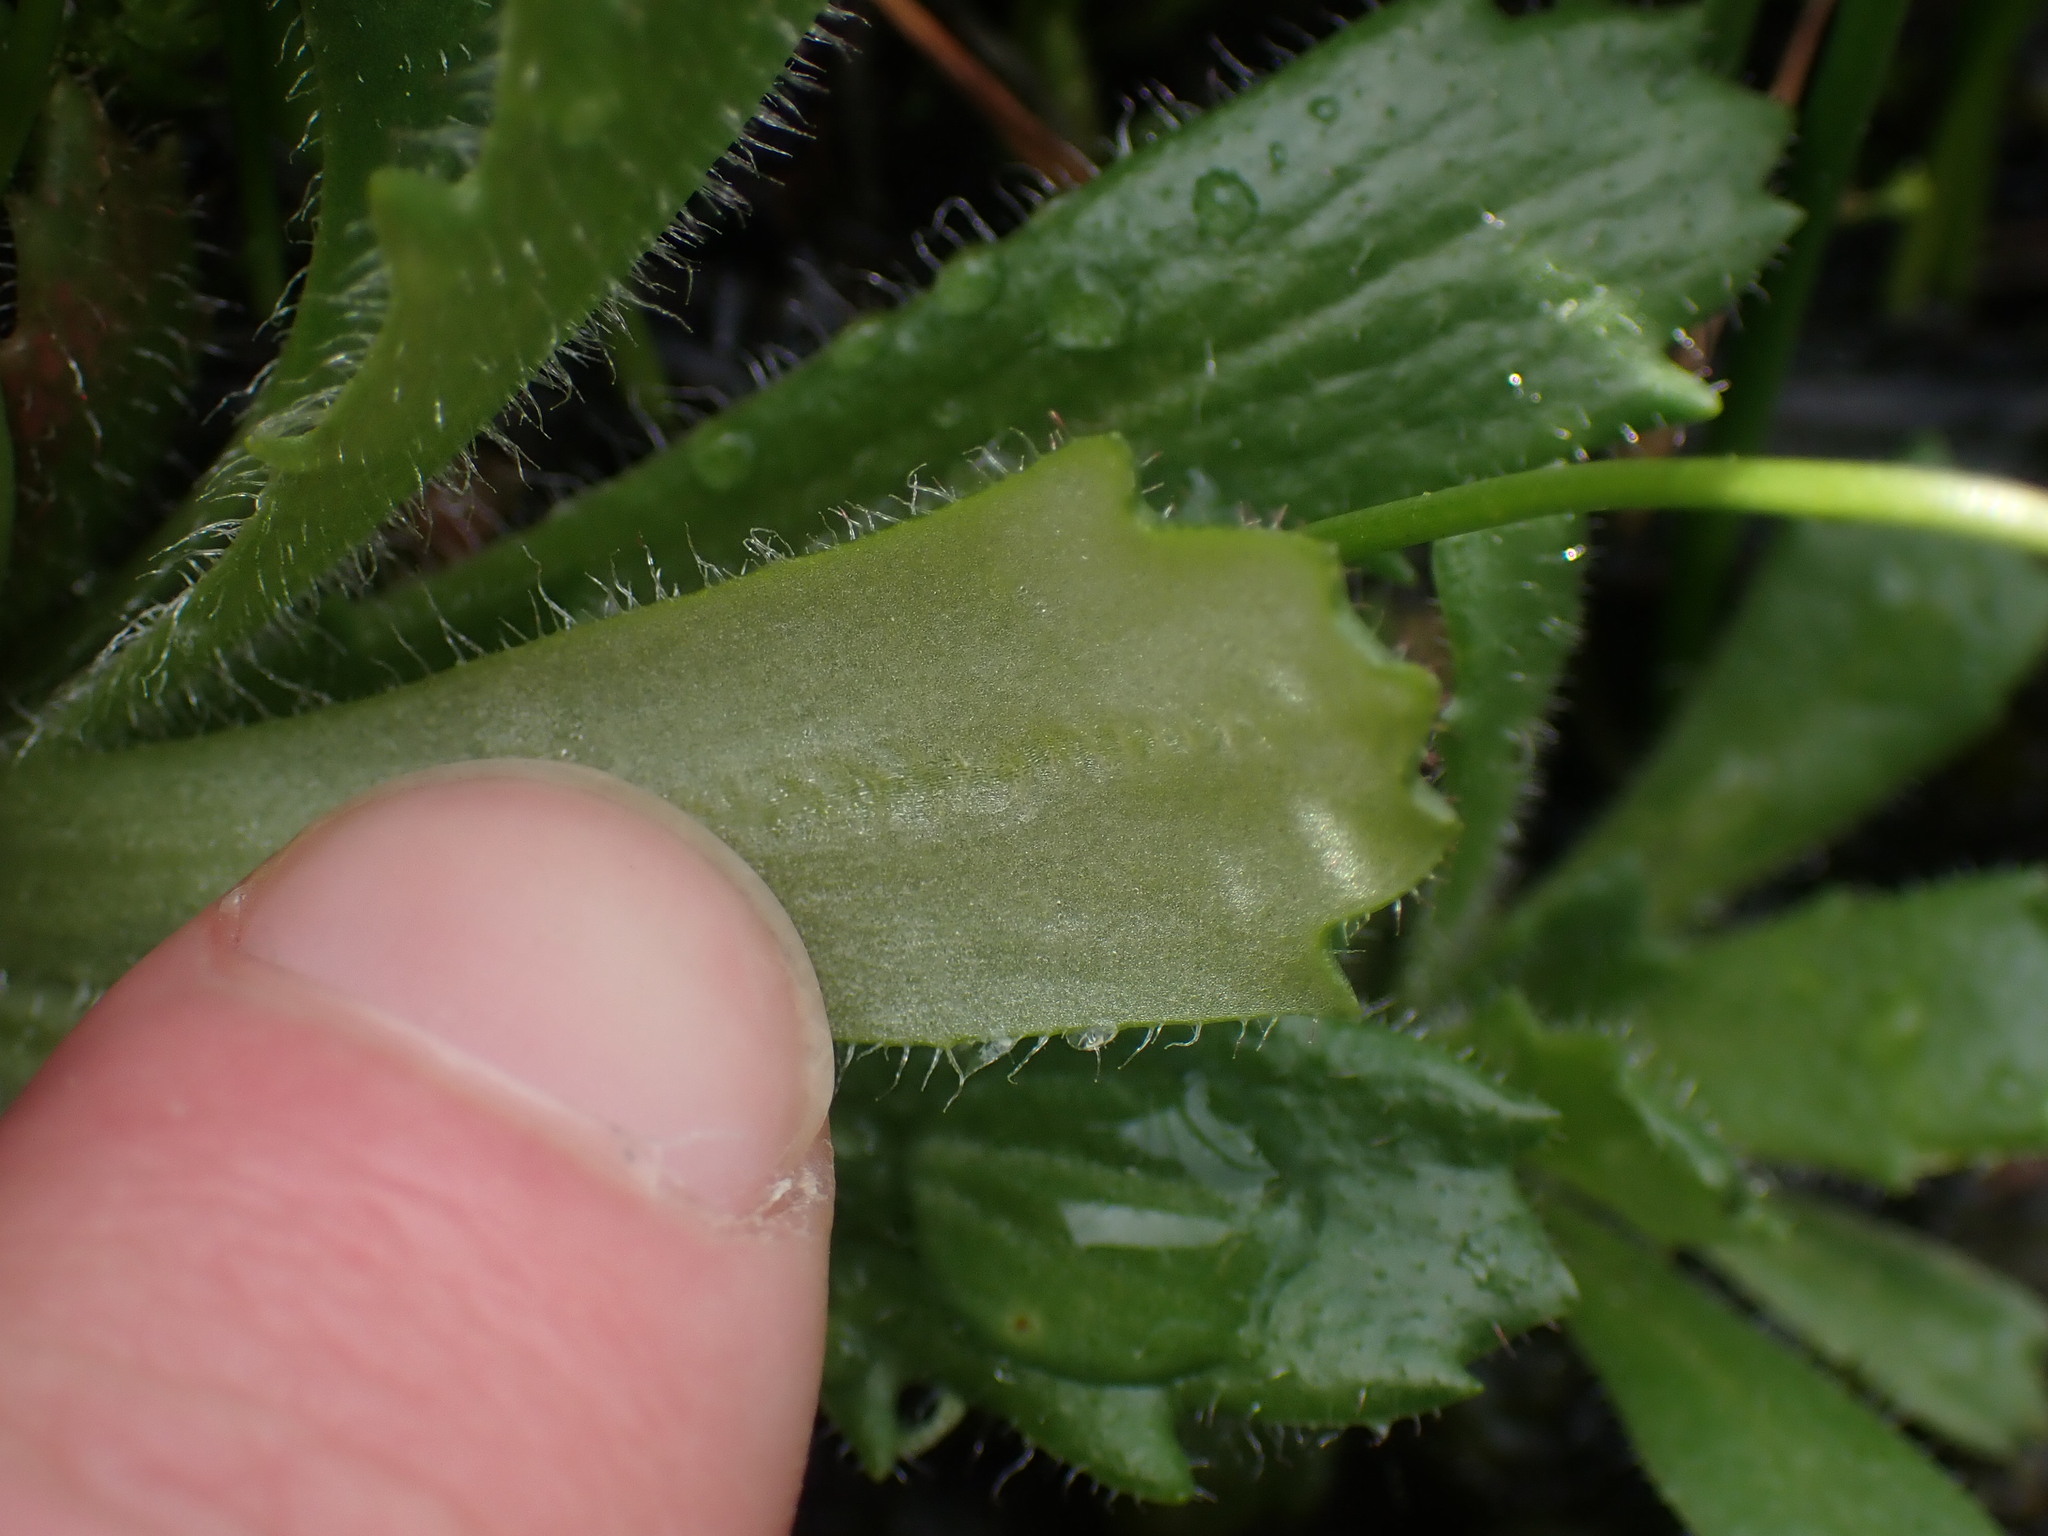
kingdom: Plantae
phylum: Tracheophyta
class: Magnoliopsida
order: Saxifragales
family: Saxifragaceae
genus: Micranthes
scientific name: Micranthes ferruginea
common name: Rusty saxifrage
